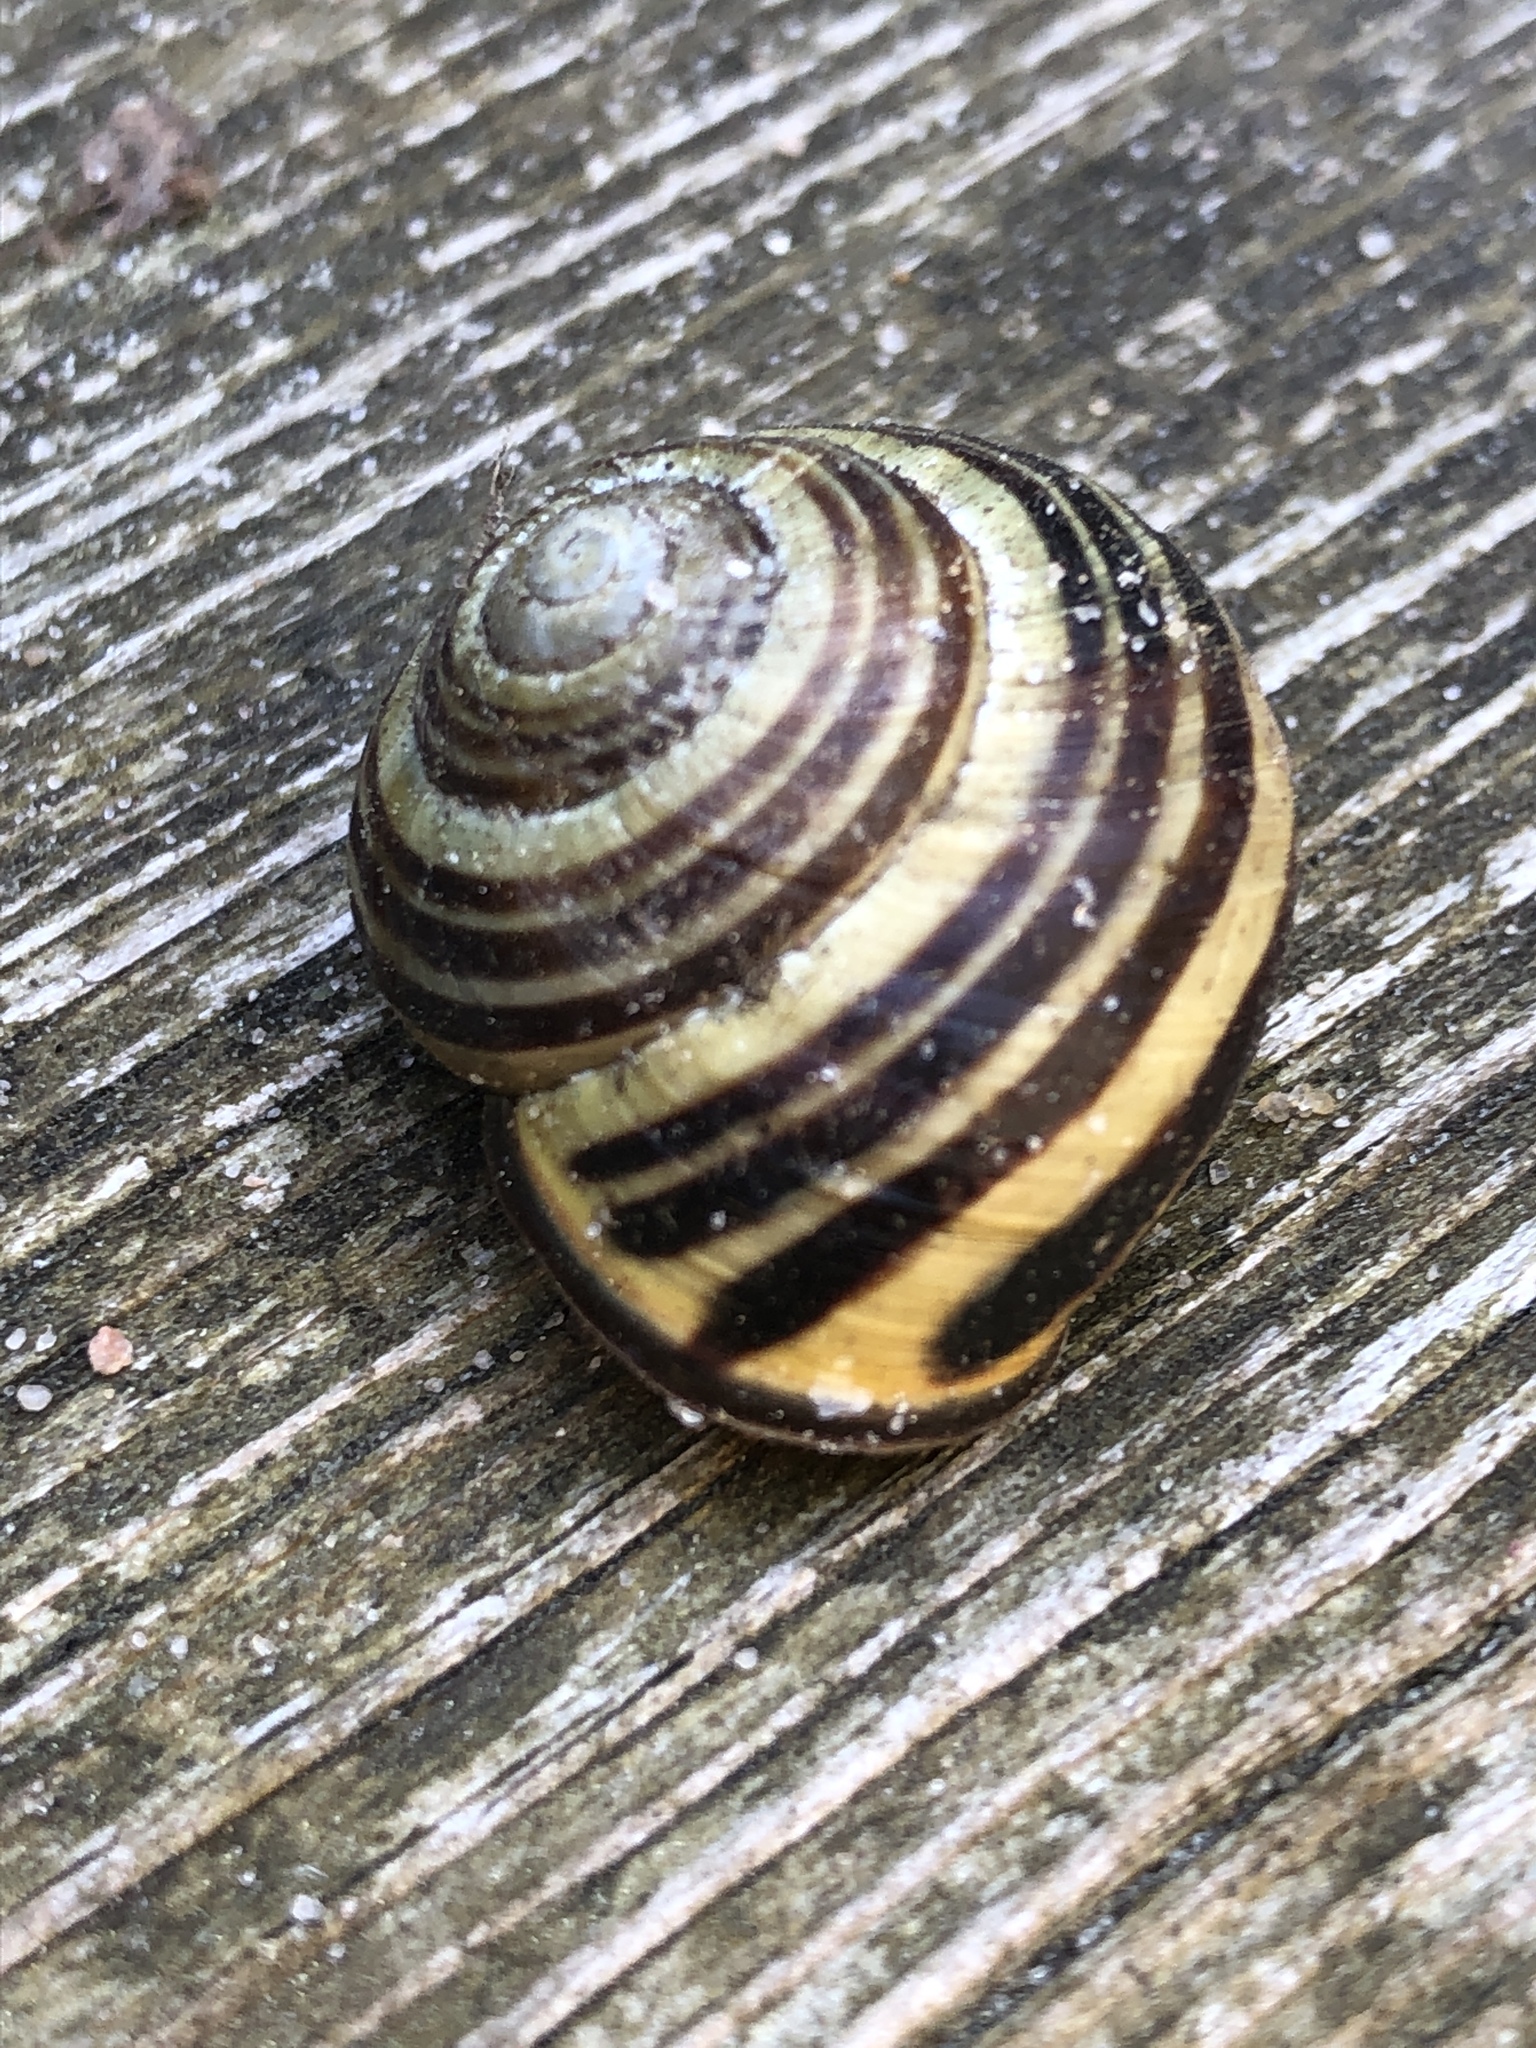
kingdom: Animalia
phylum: Mollusca
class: Gastropoda
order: Stylommatophora
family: Helicidae
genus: Cepaea
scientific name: Cepaea nemoralis
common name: Grovesnail
